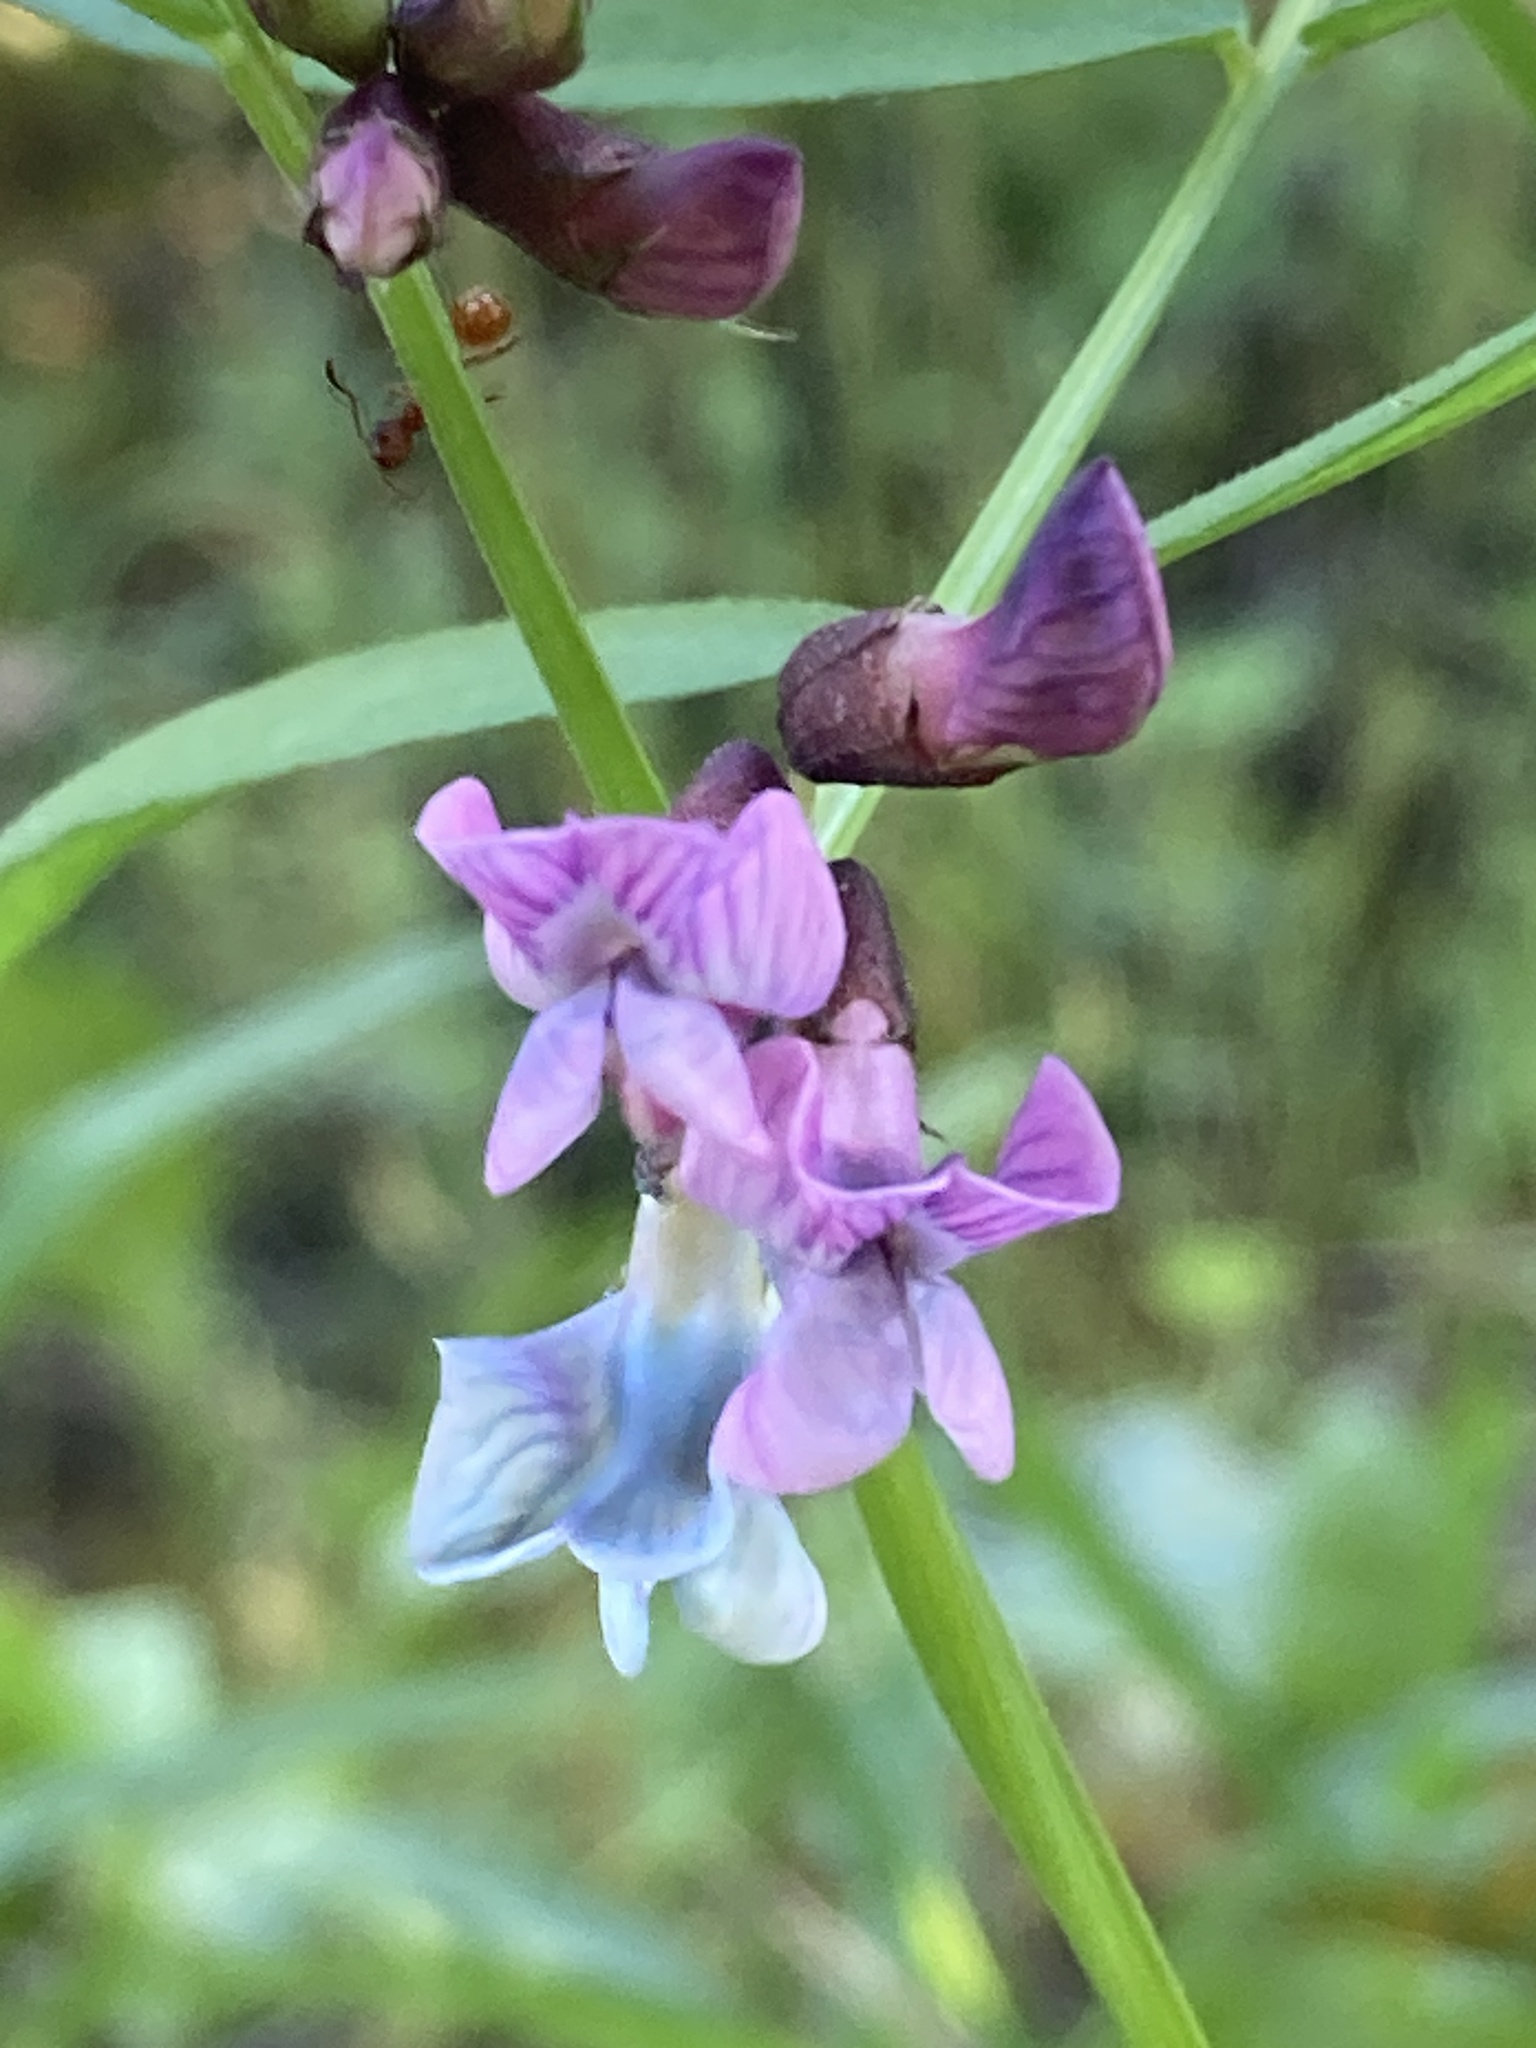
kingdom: Plantae
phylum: Tracheophyta
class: Magnoliopsida
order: Fabales
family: Fabaceae
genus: Vicia
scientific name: Vicia sepium
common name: Bush vetch
